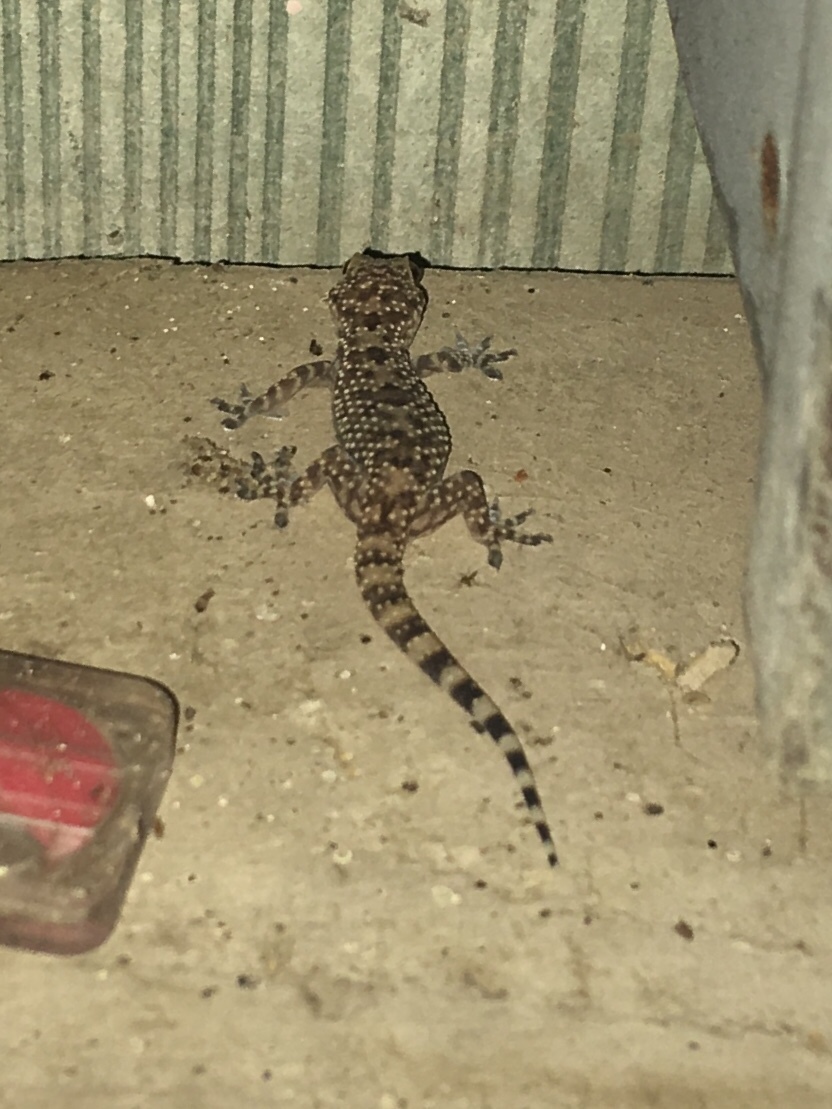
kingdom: Animalia
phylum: Chordata
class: Squamata
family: Gekkonidae
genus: Hemidactylus
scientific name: Hemidactylus turcicus
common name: Turkish gecko
